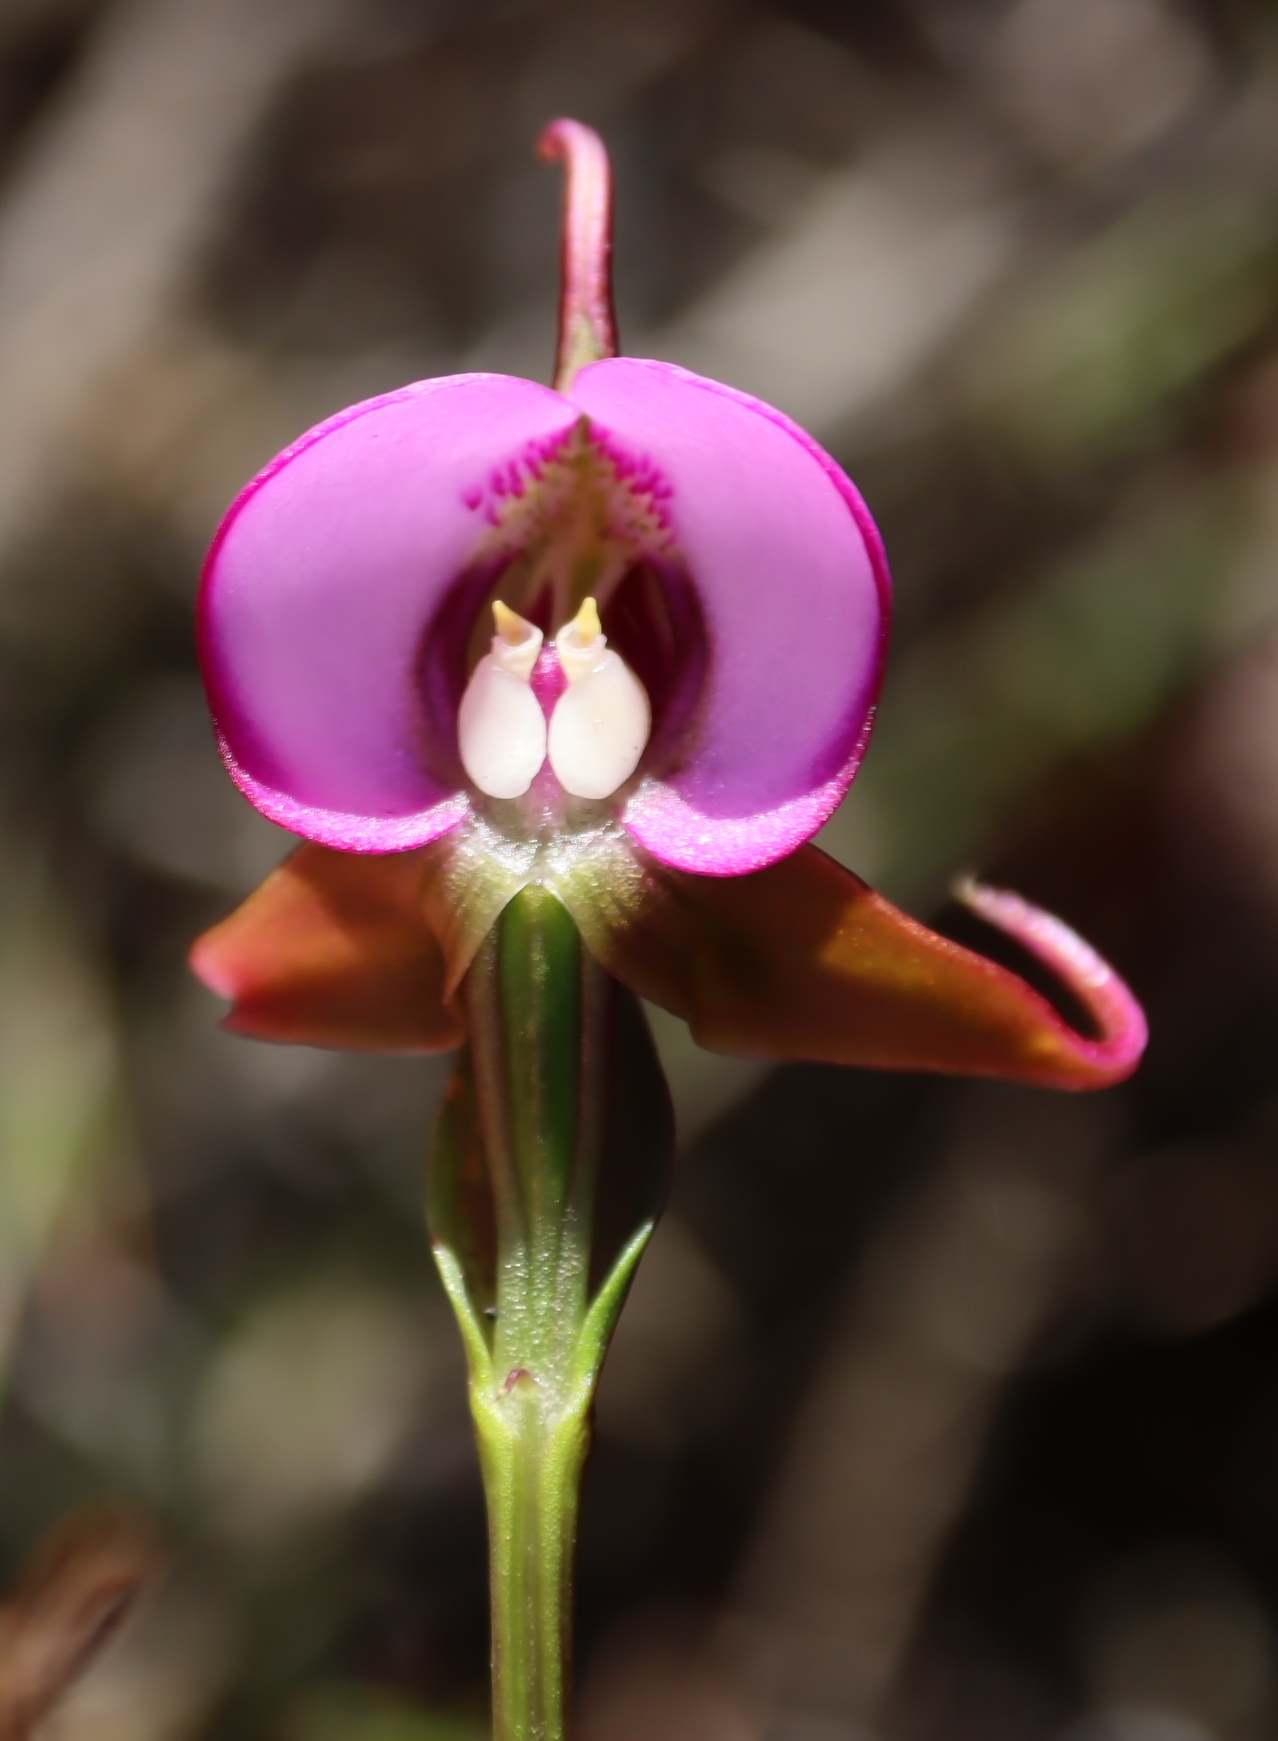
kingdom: Plantae
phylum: Tracheophyta
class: Liliopsida
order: Asparagales
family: Orchidaceae
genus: Disperis
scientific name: Disperis capensis
